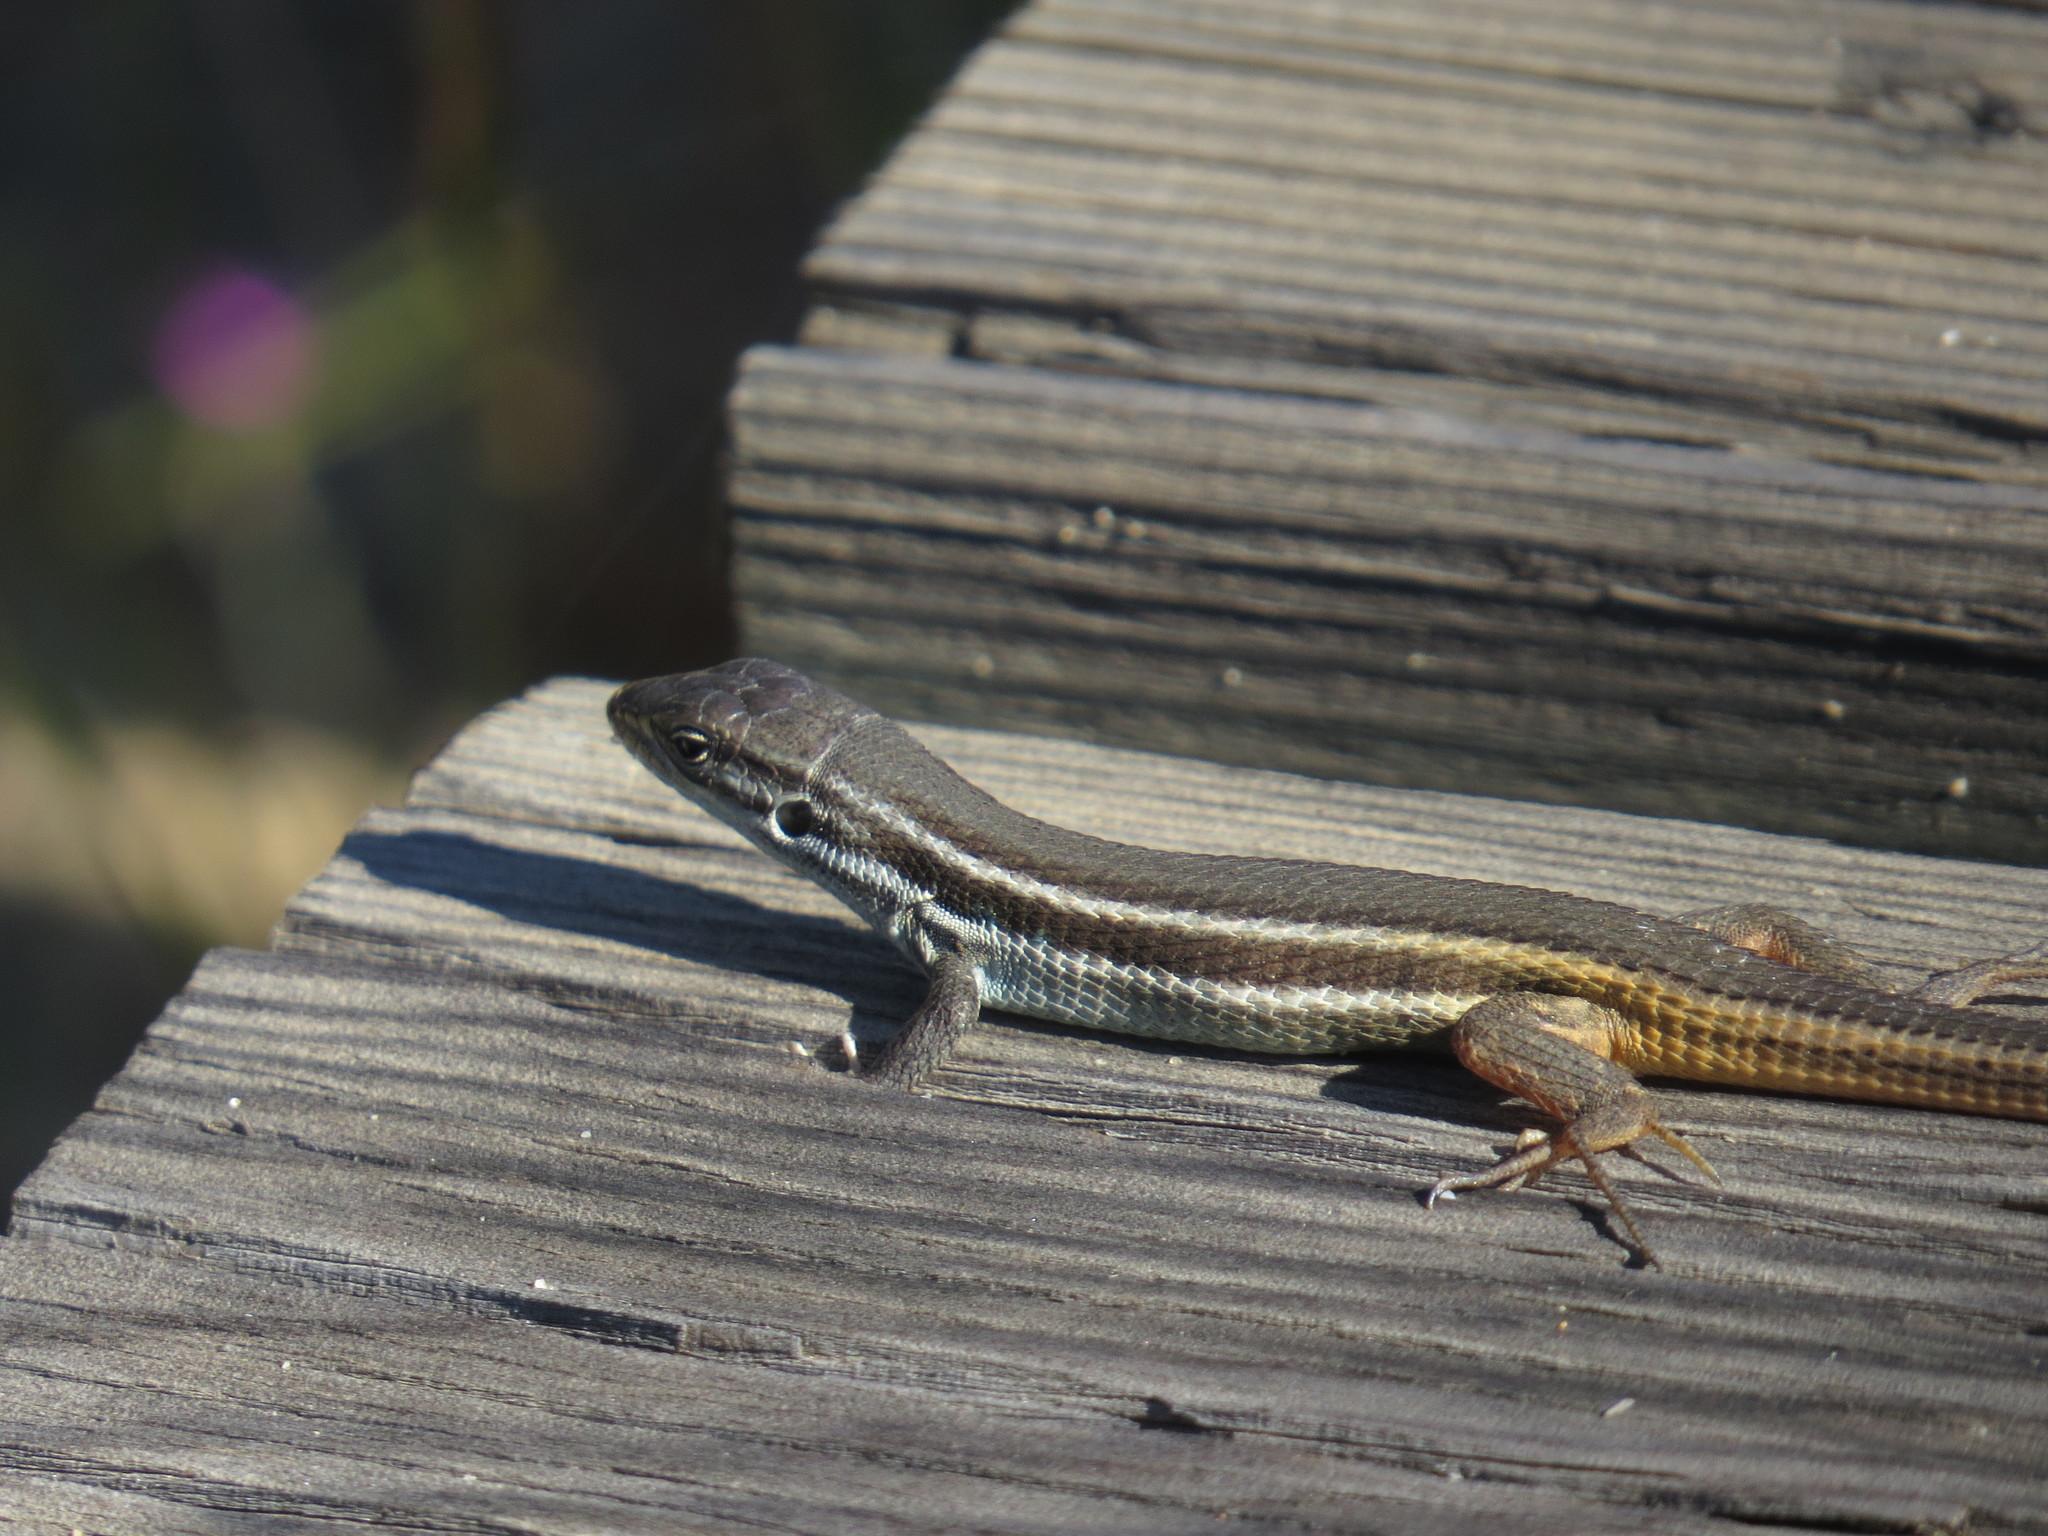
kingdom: Animalia
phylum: Chordata
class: Squamata
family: Lacertidae
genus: Psammodromus
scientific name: Psammodromus algirus
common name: Algerian psammodromus
